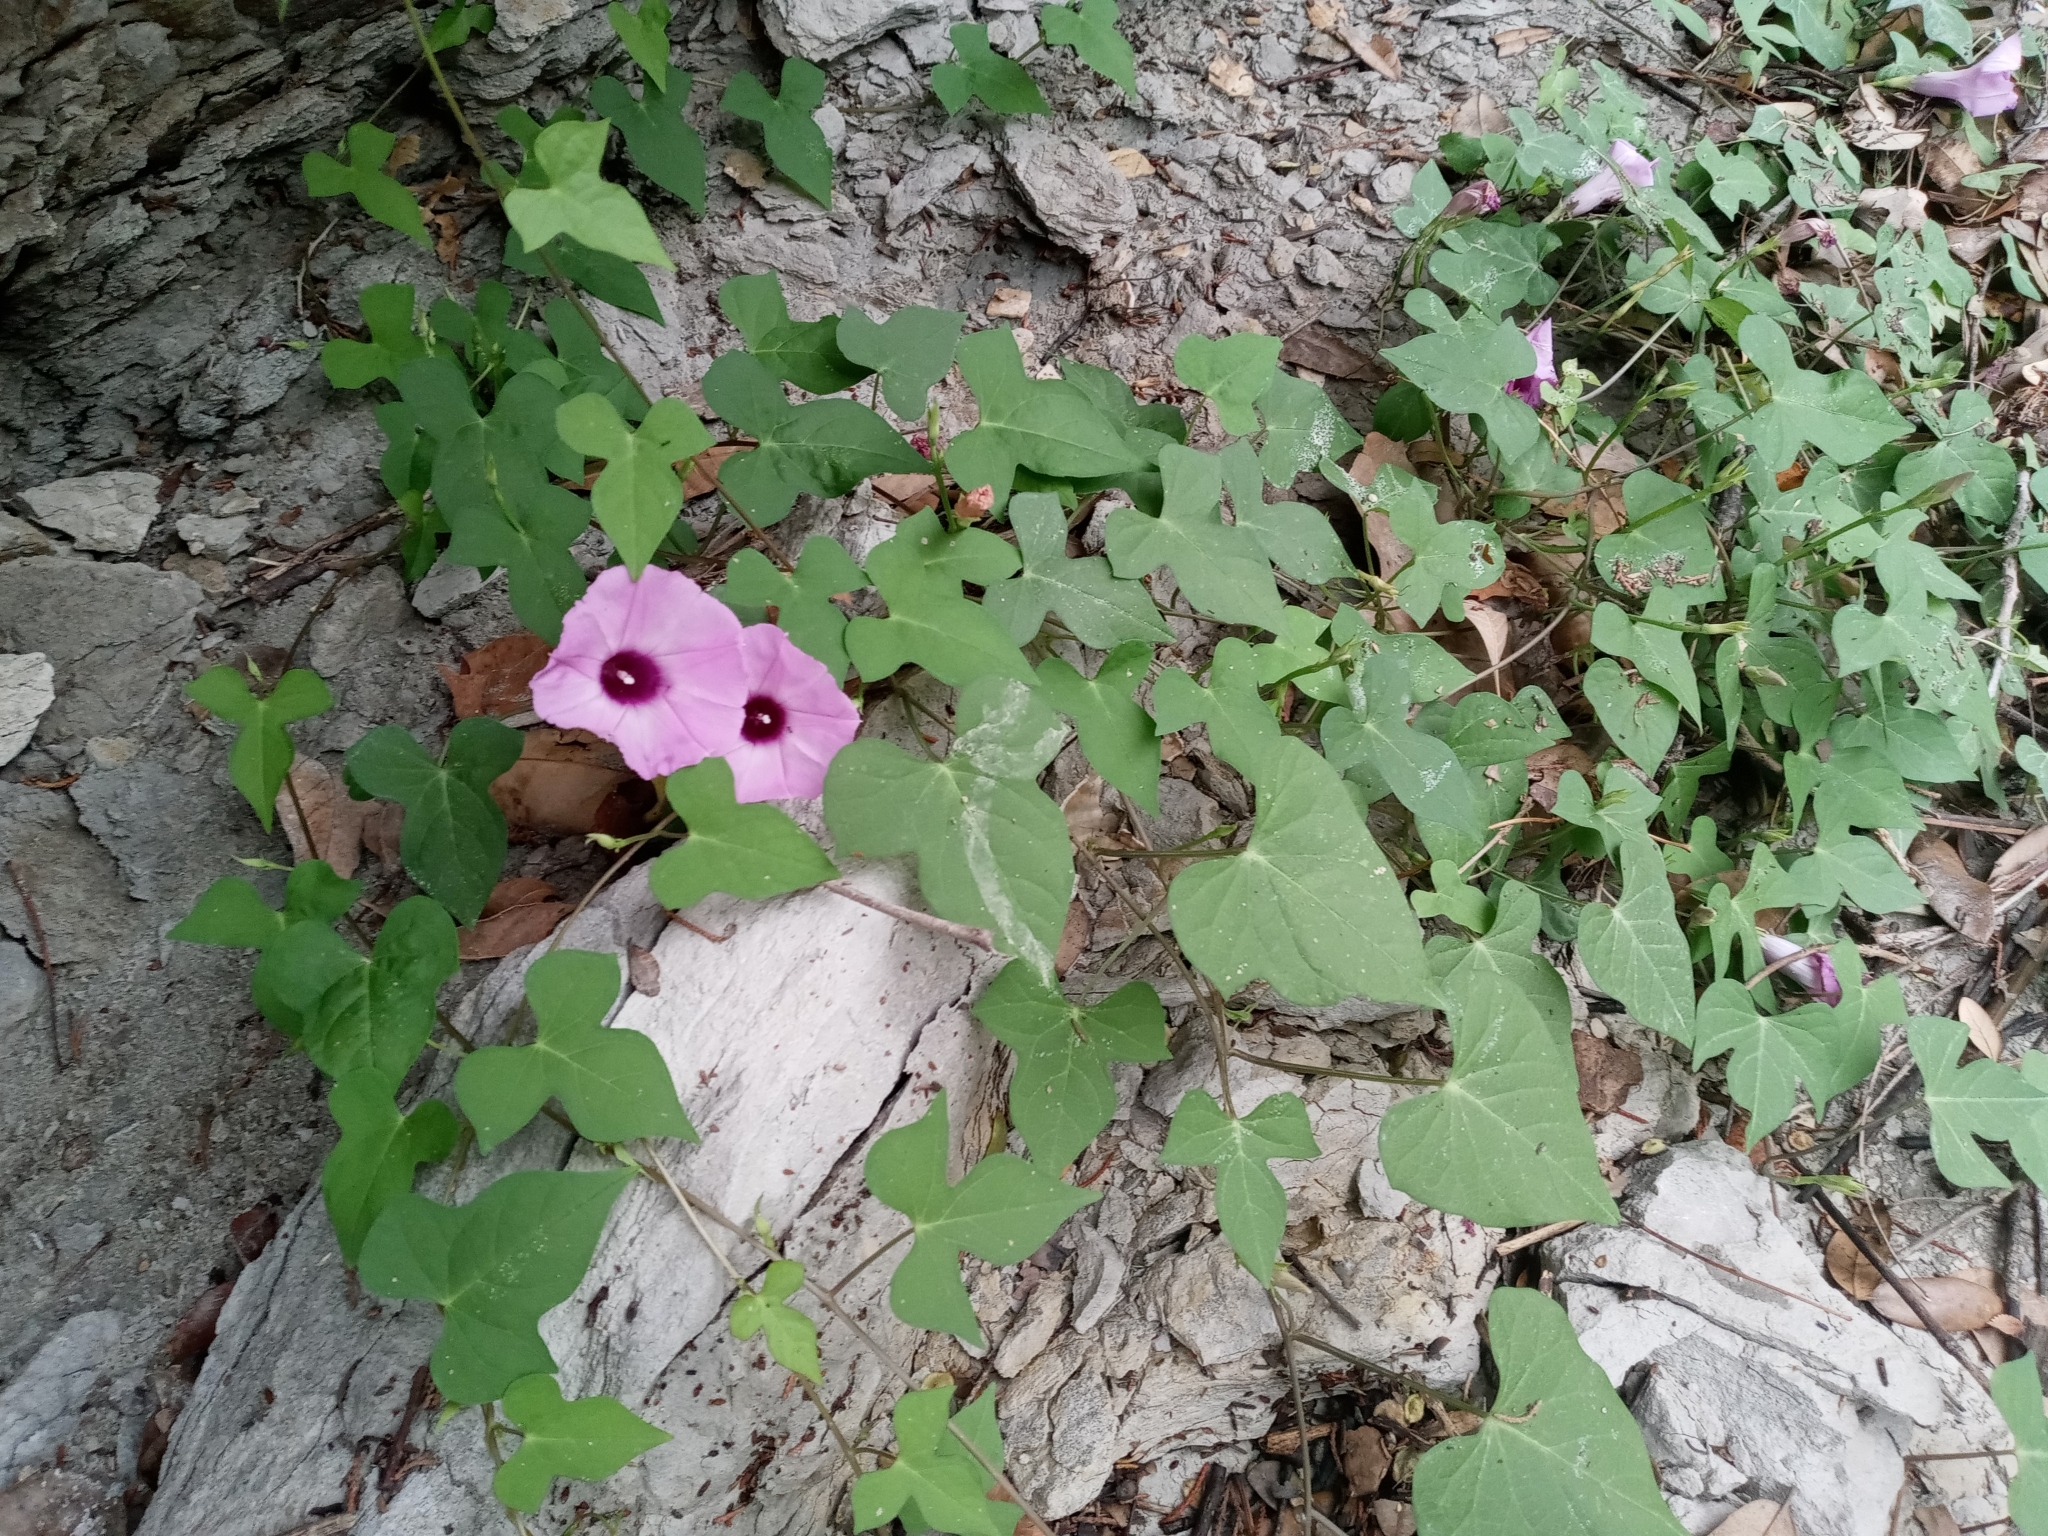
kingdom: Plantae
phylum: Tracheophyta
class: Magnoliopsida
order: Solanales
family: Convolvulaceae
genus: Ipomoea
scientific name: Ipomoea cordatotriloba
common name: Cotton morning glory
